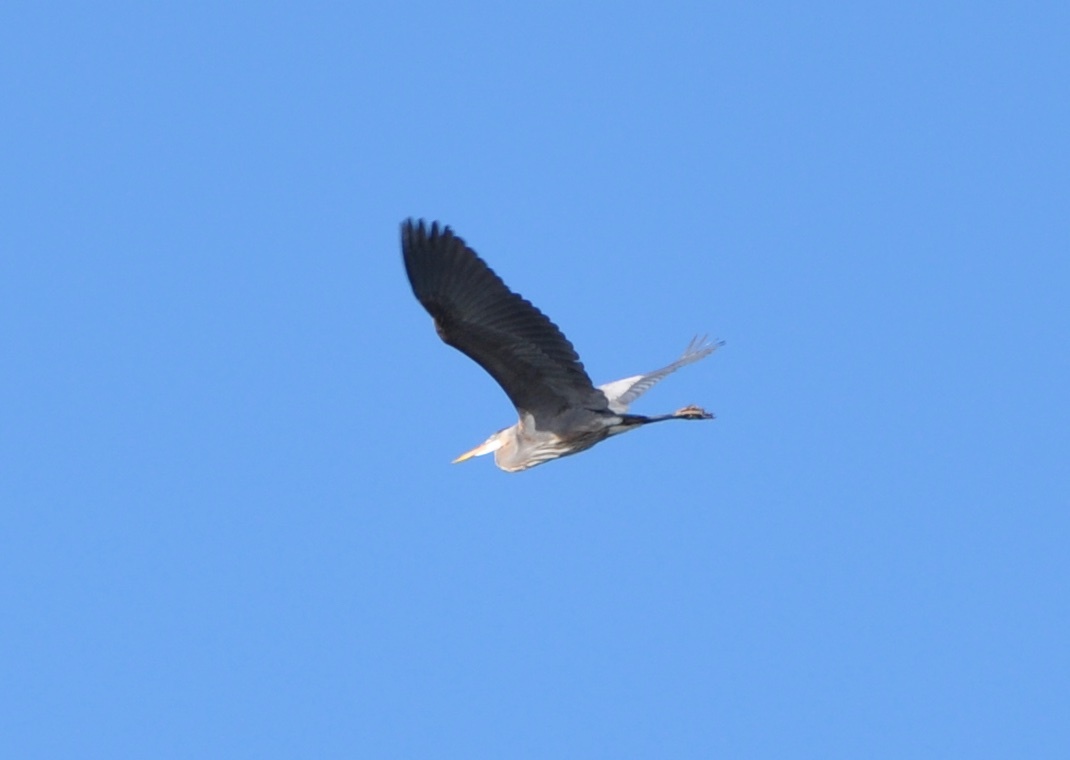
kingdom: Animalia
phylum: Chordata
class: Aves
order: Pelecaniformes
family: Ardeidae
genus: Ardea
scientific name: Ardea herodias
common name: Great blue heron
